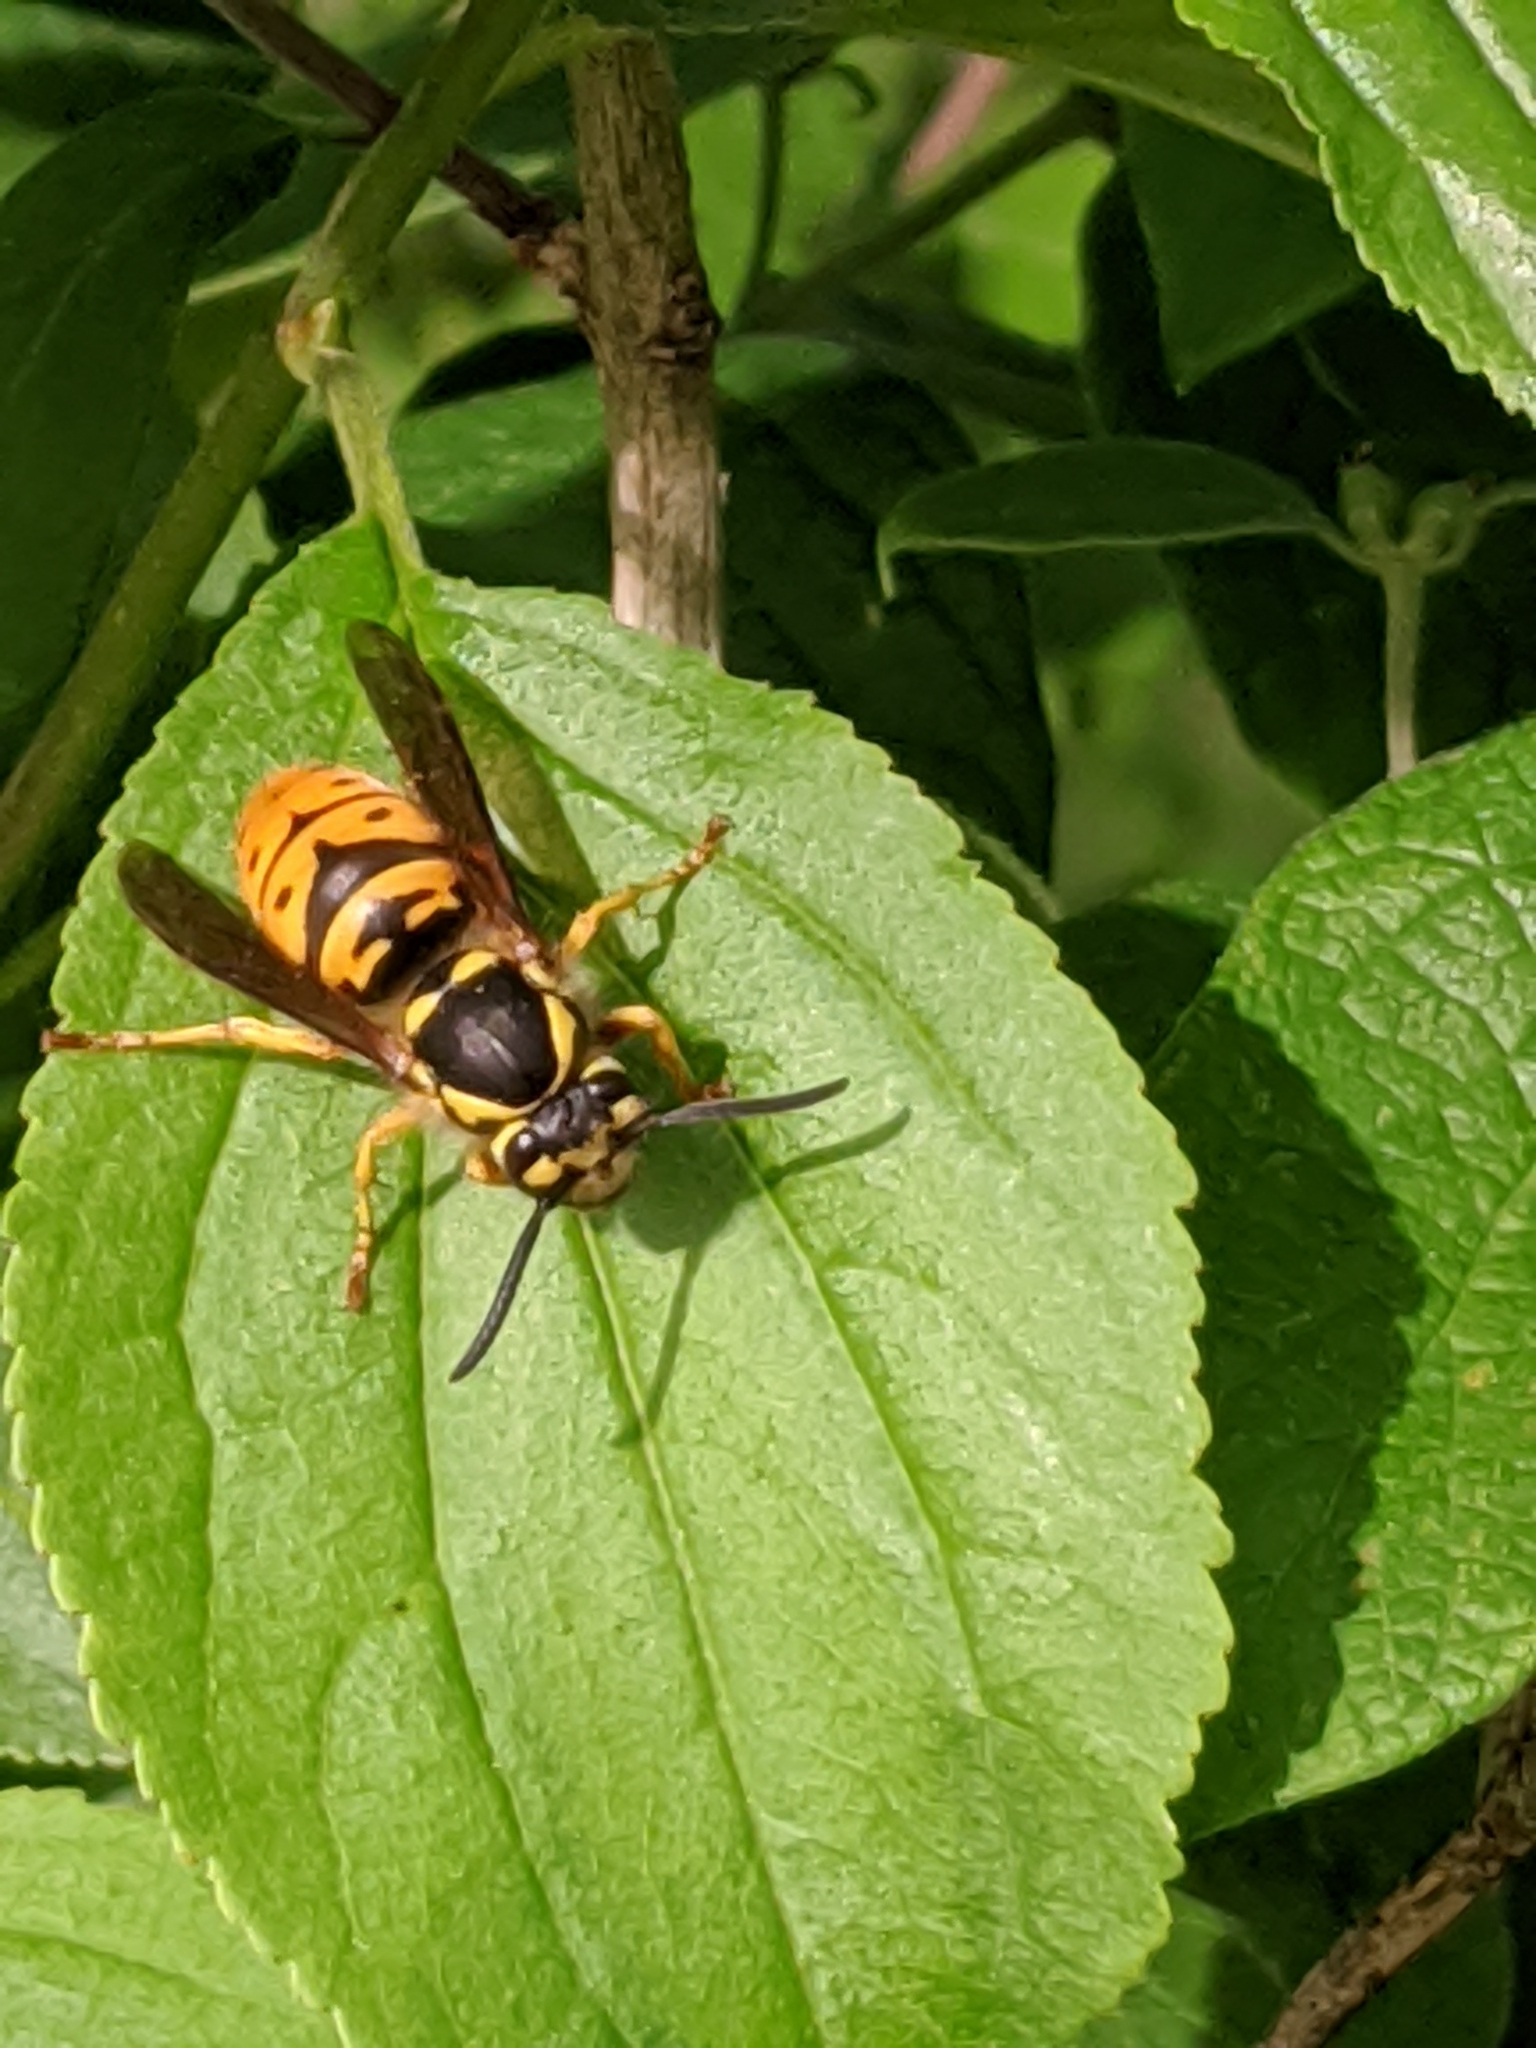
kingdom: Animalia
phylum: Arthropoda
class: Insecta
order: Hymenoptera
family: Vespidae
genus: Vespula
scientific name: Vespula maculifrons
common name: Eastern yellowjacket
